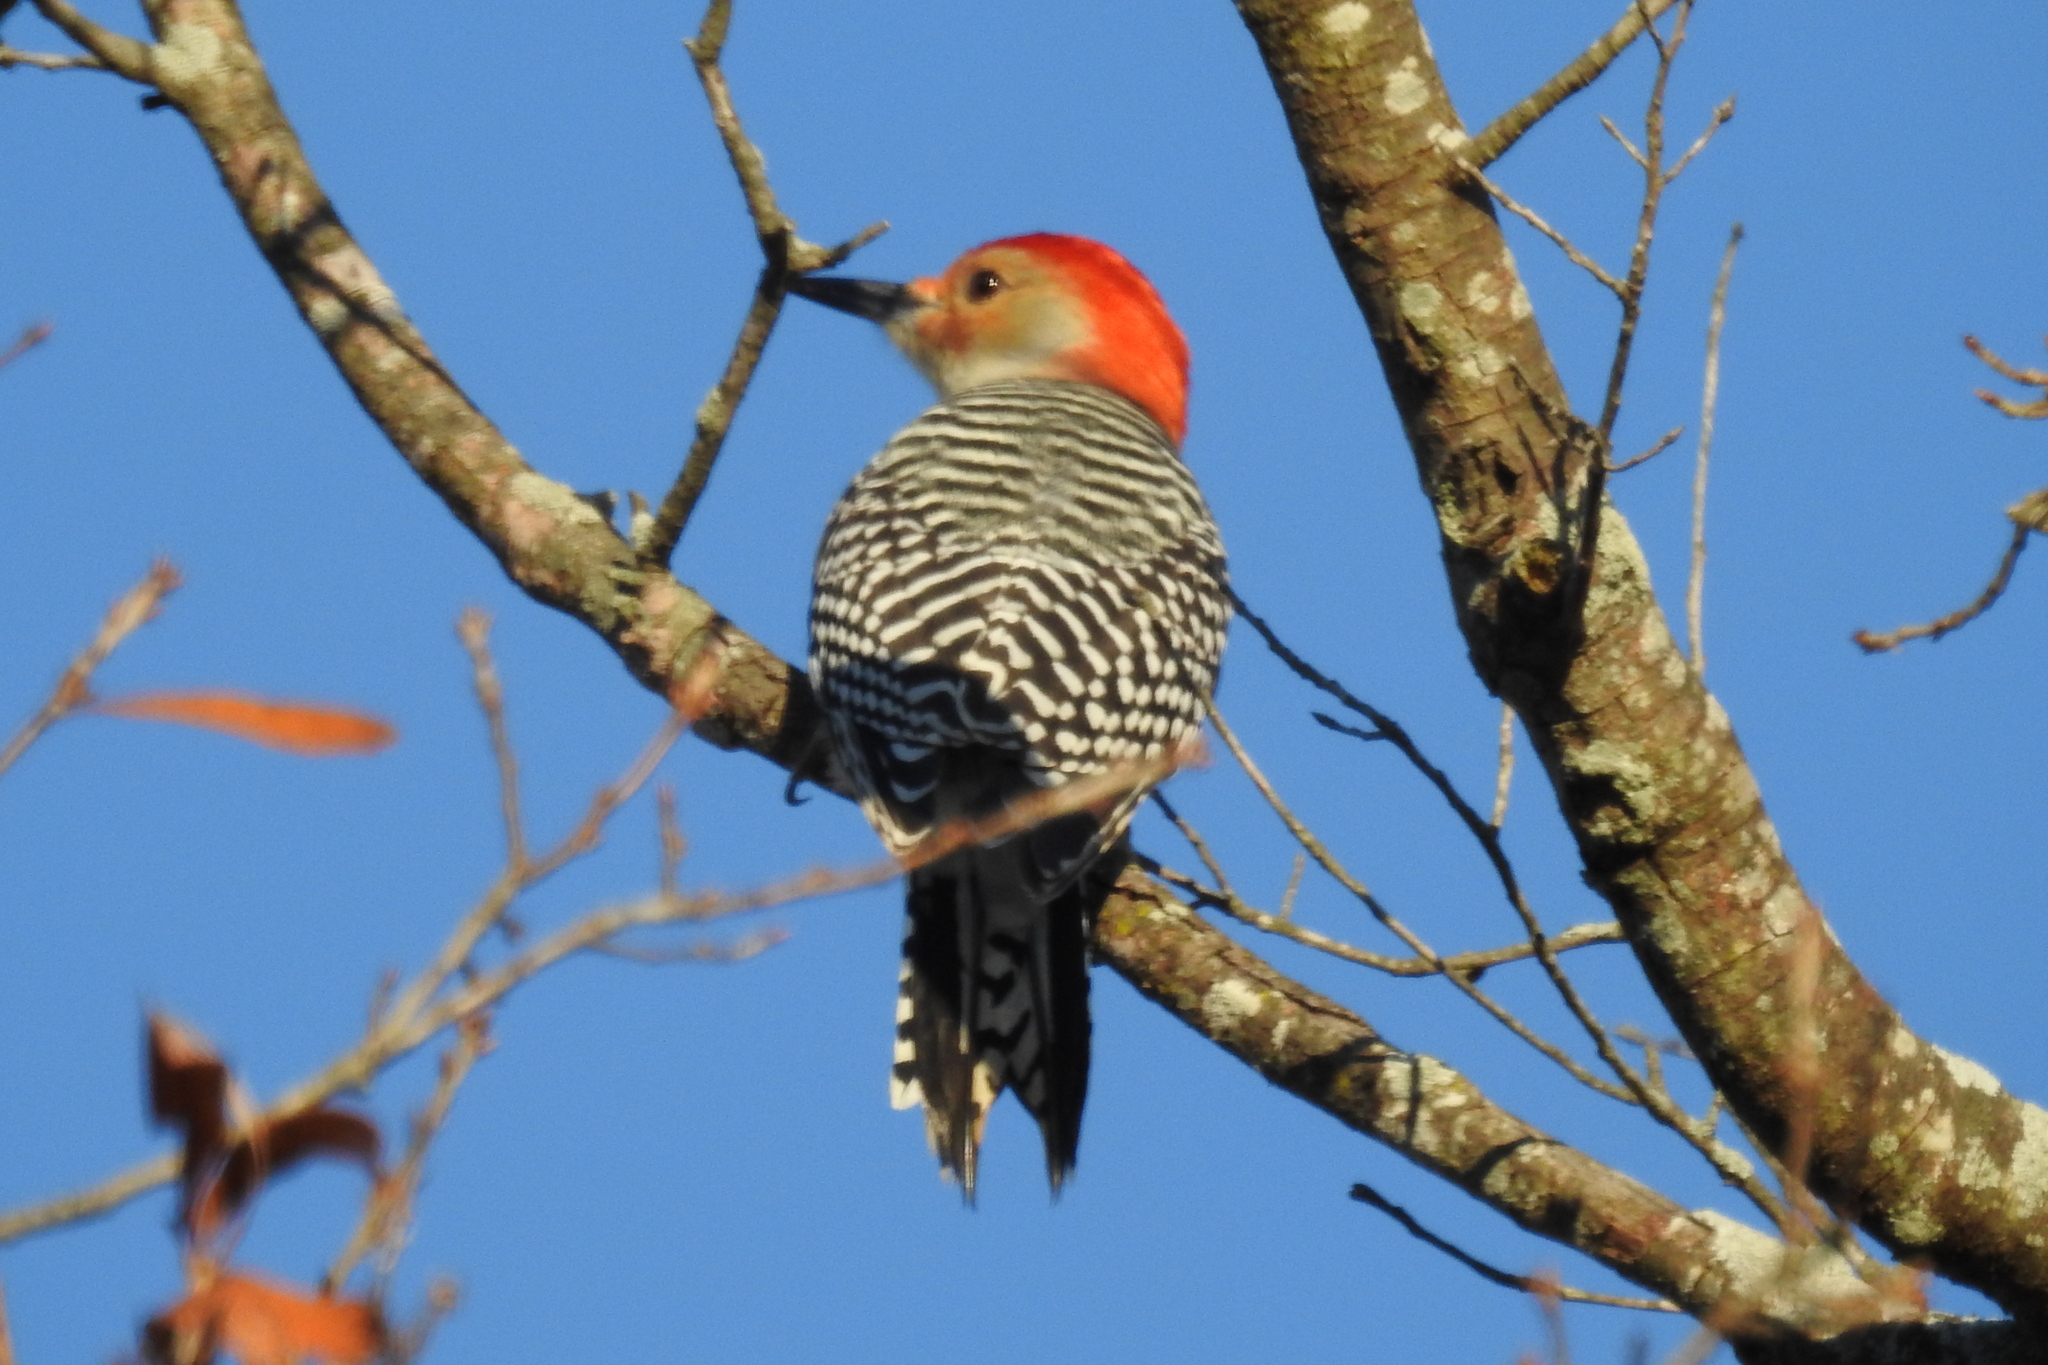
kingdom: Animalia
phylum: Chordata
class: Aves
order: Piciformes
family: Picidae
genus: Melanerpes
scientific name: Melanerpes carolinus
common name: Red-bellied woodpecker
